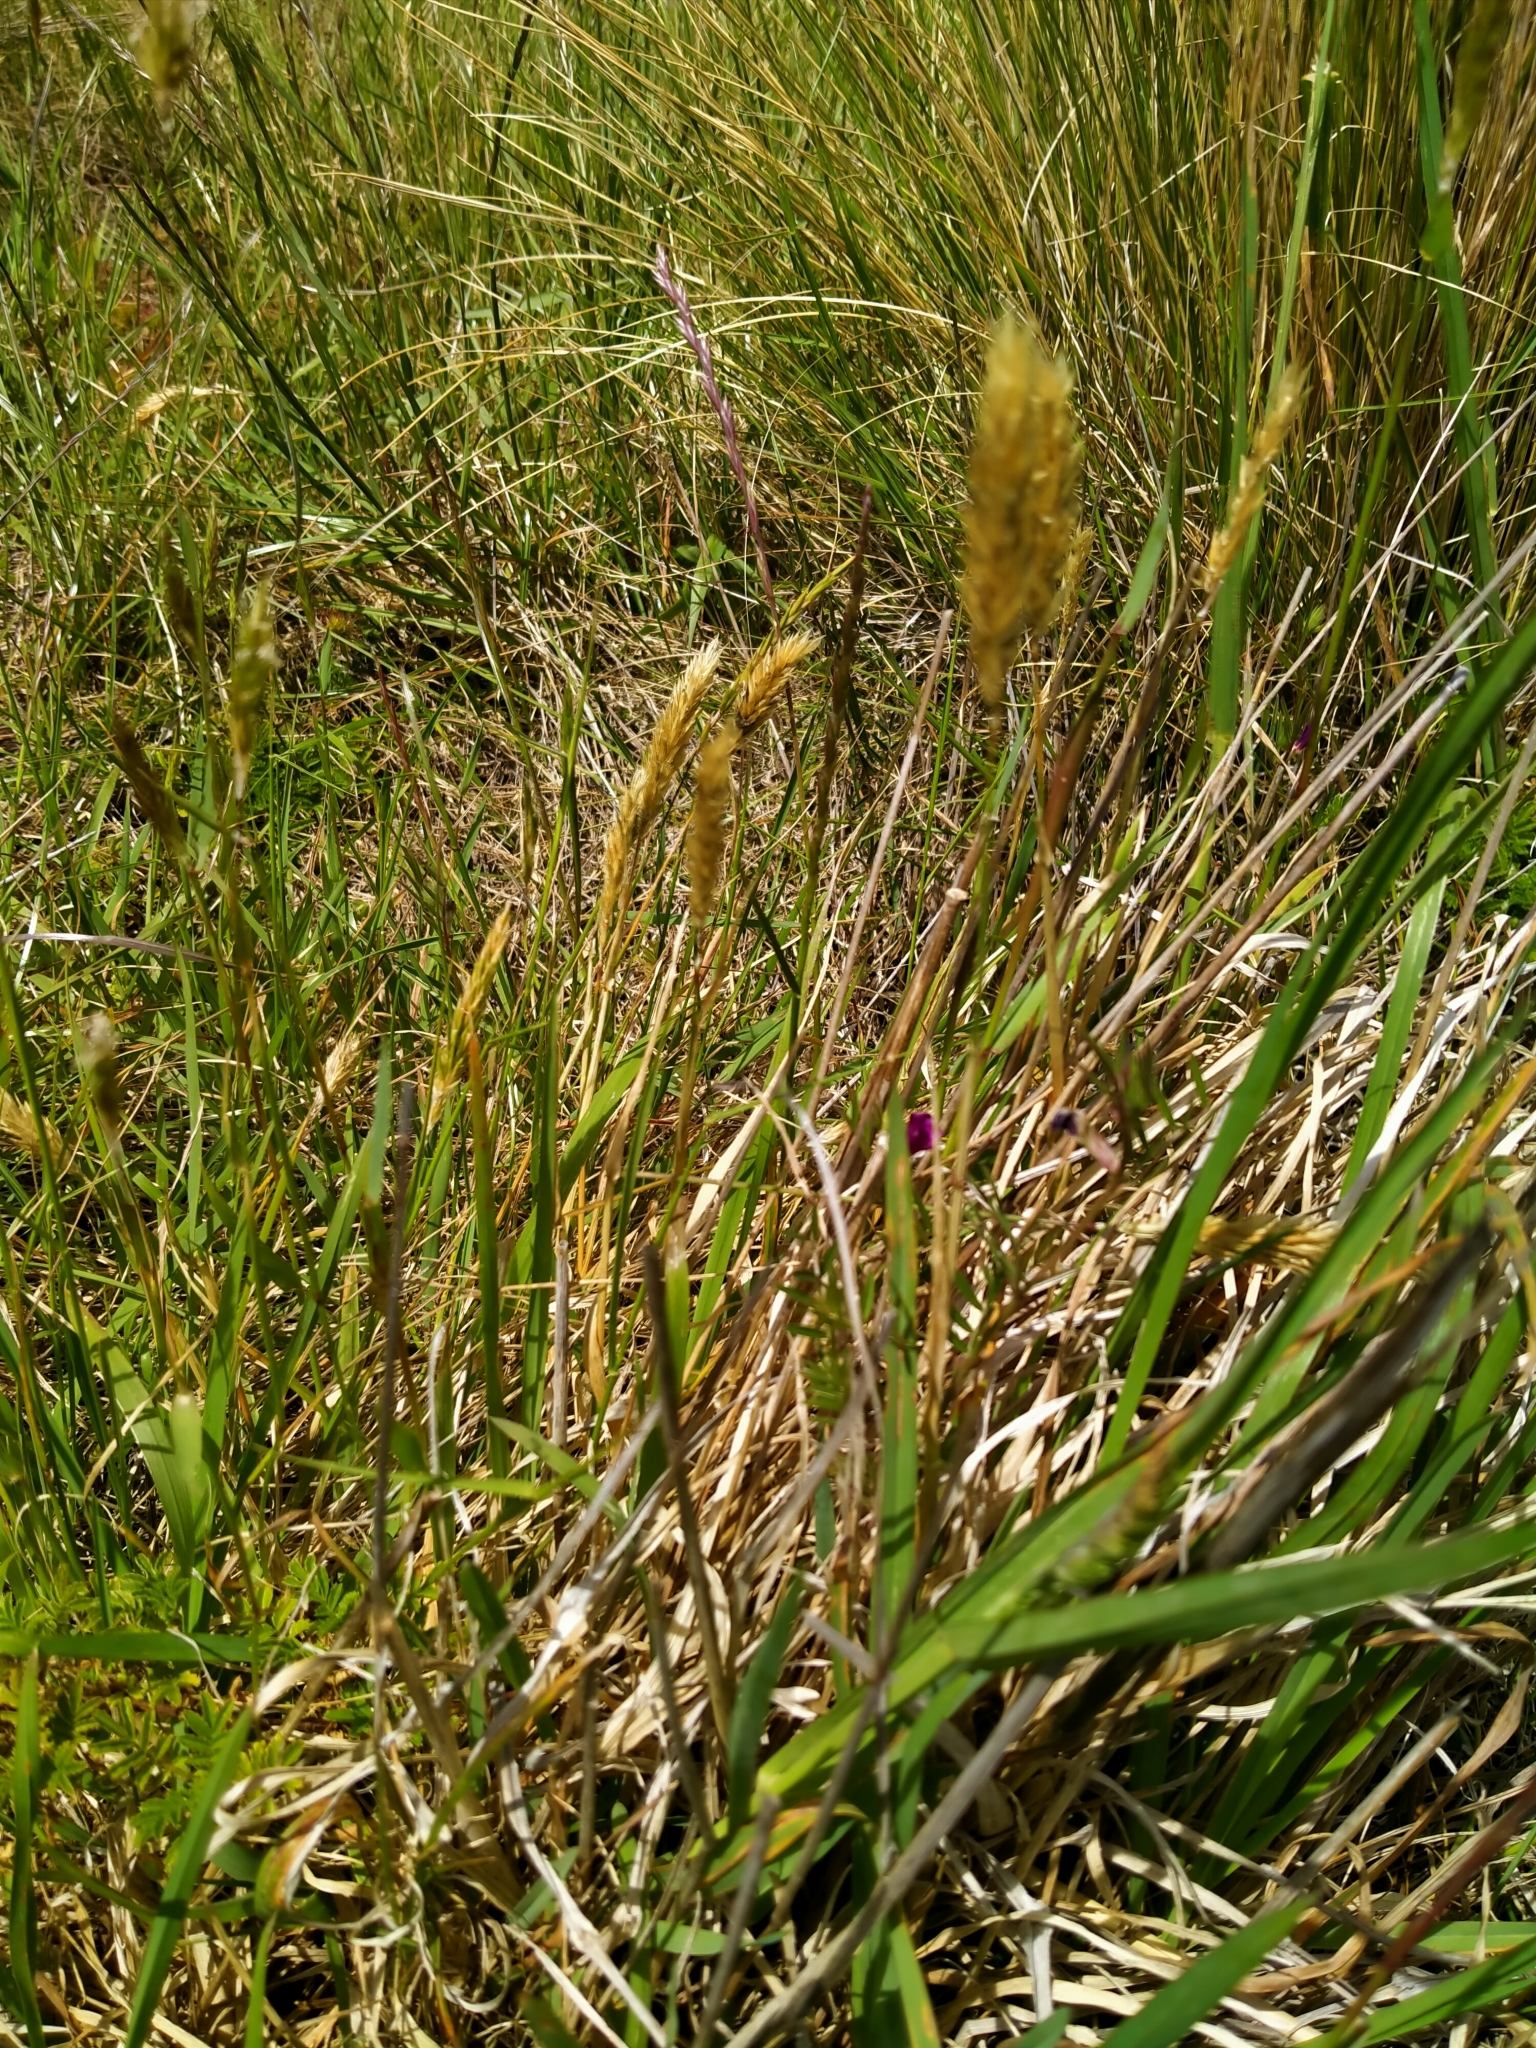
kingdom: Plantae
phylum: Tracheophyta
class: Liliopsida
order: Poales
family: Poaceae
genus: Anthoxanthum
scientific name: Anthoxanthum odoratum
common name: Sweet vernalgrass
